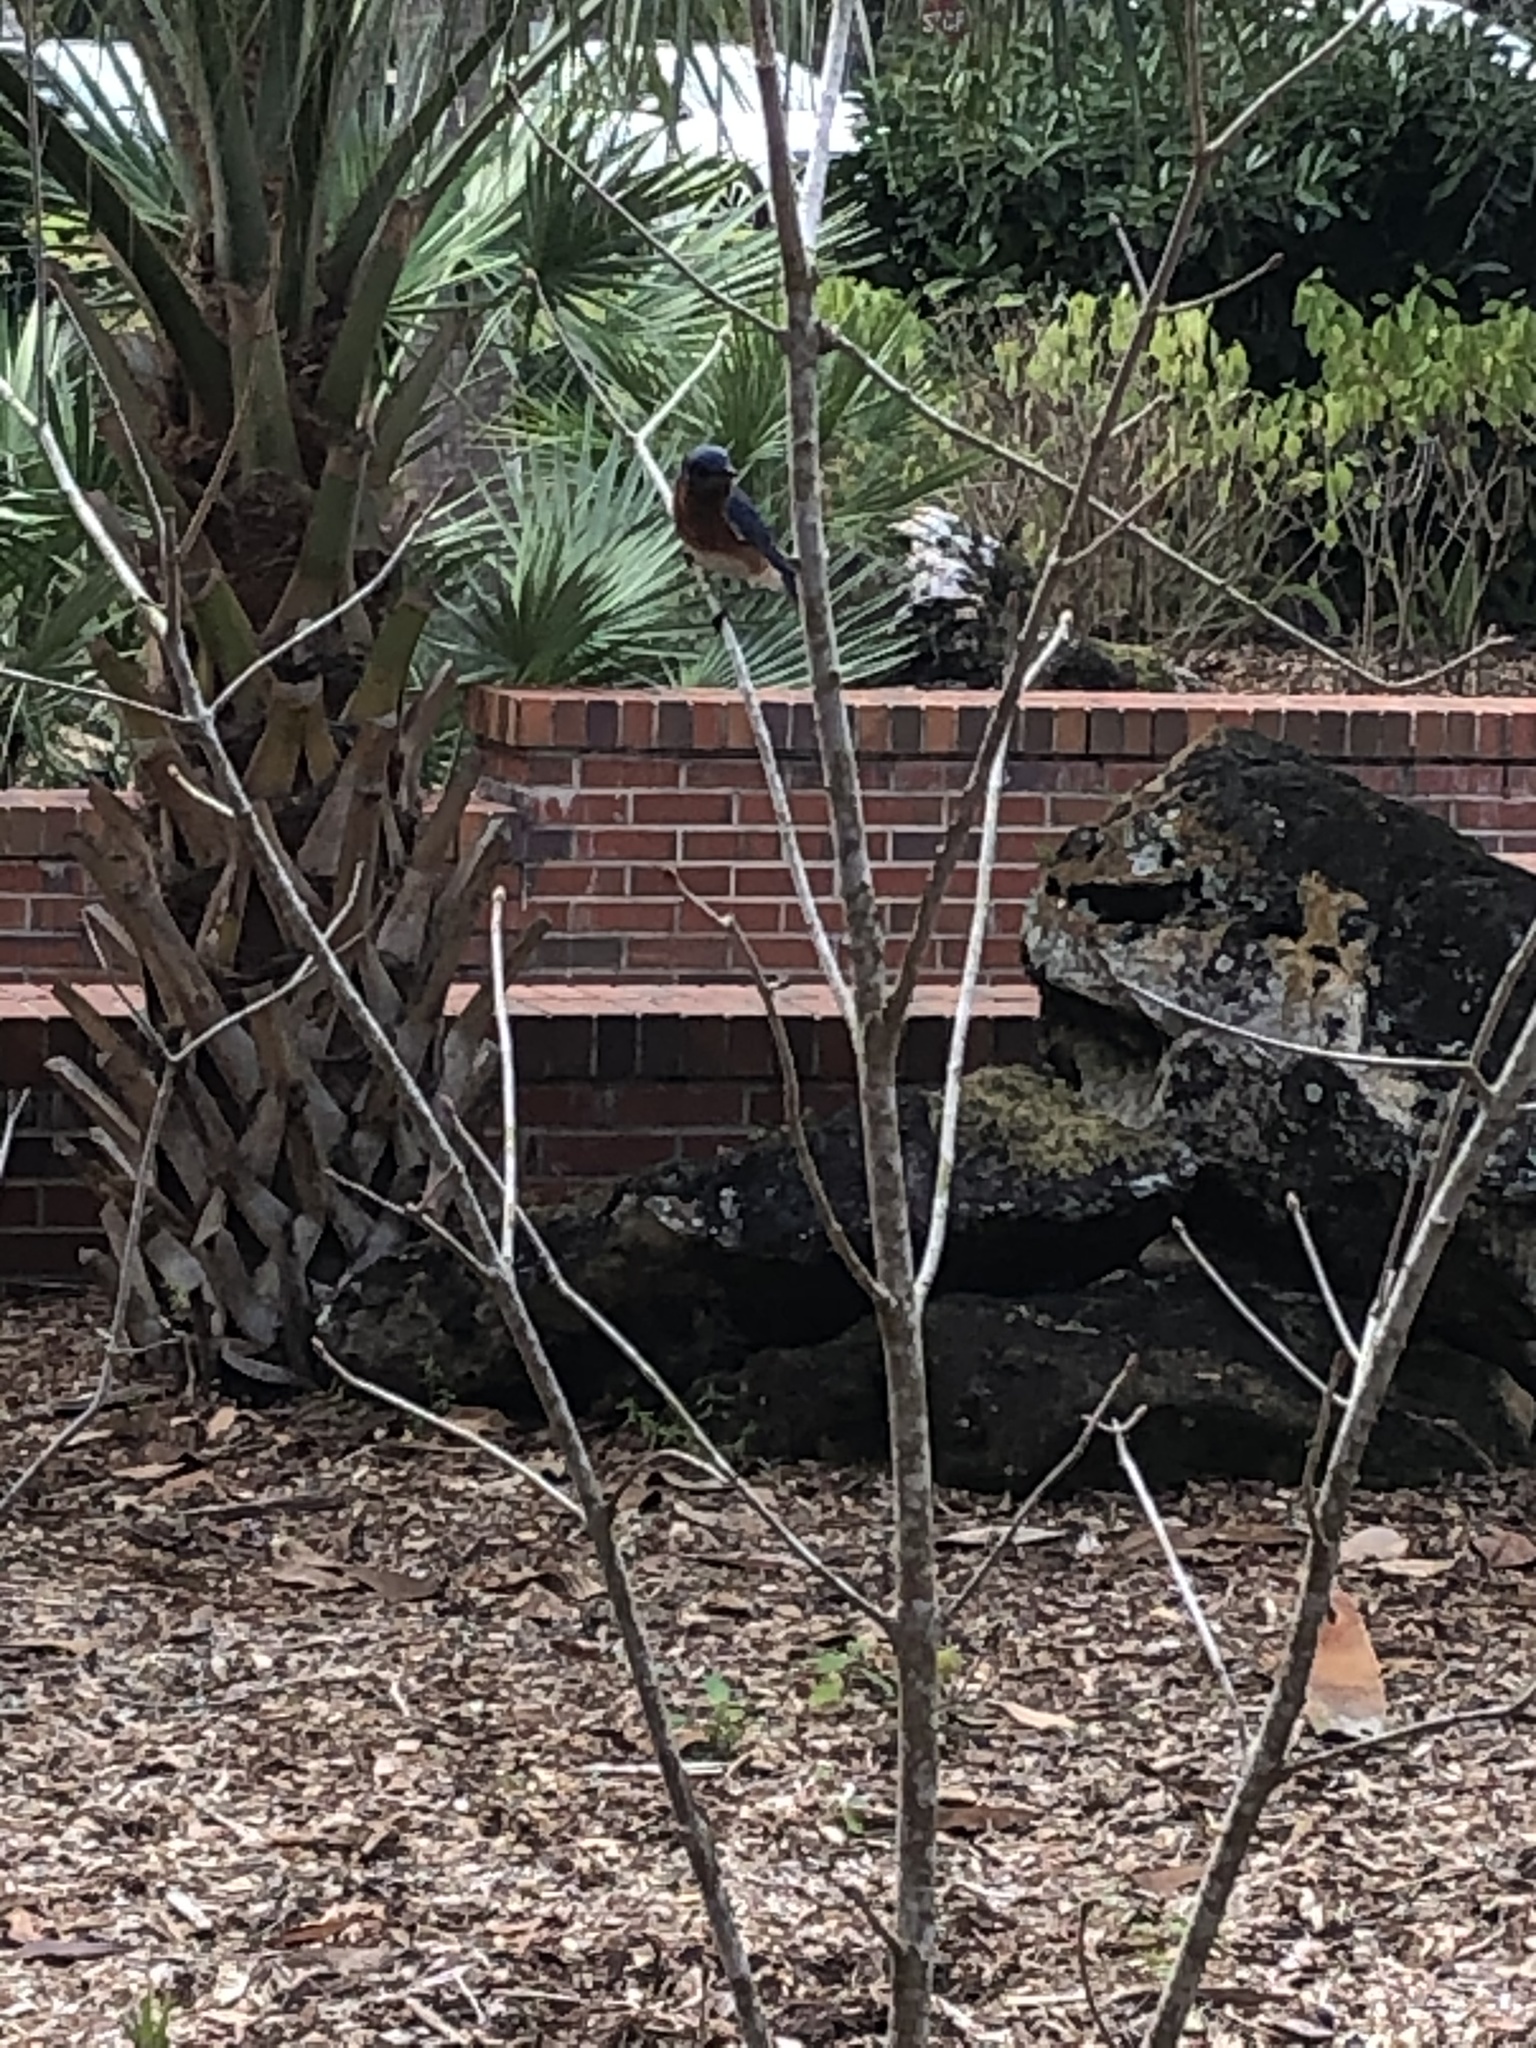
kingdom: Animalia
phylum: Chordata
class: Aves
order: Passeriformes
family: Turdidae
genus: Sialia
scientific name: Sialia sialis
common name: Eastern bluebird
